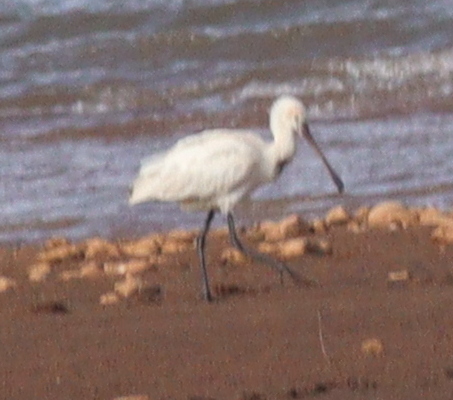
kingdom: Animalia
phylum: Chordata
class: Aves
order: Pelecaniformes
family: Threskiornithidae
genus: Platalea
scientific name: Platalea leucorodia
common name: Eurasian spoonbill
